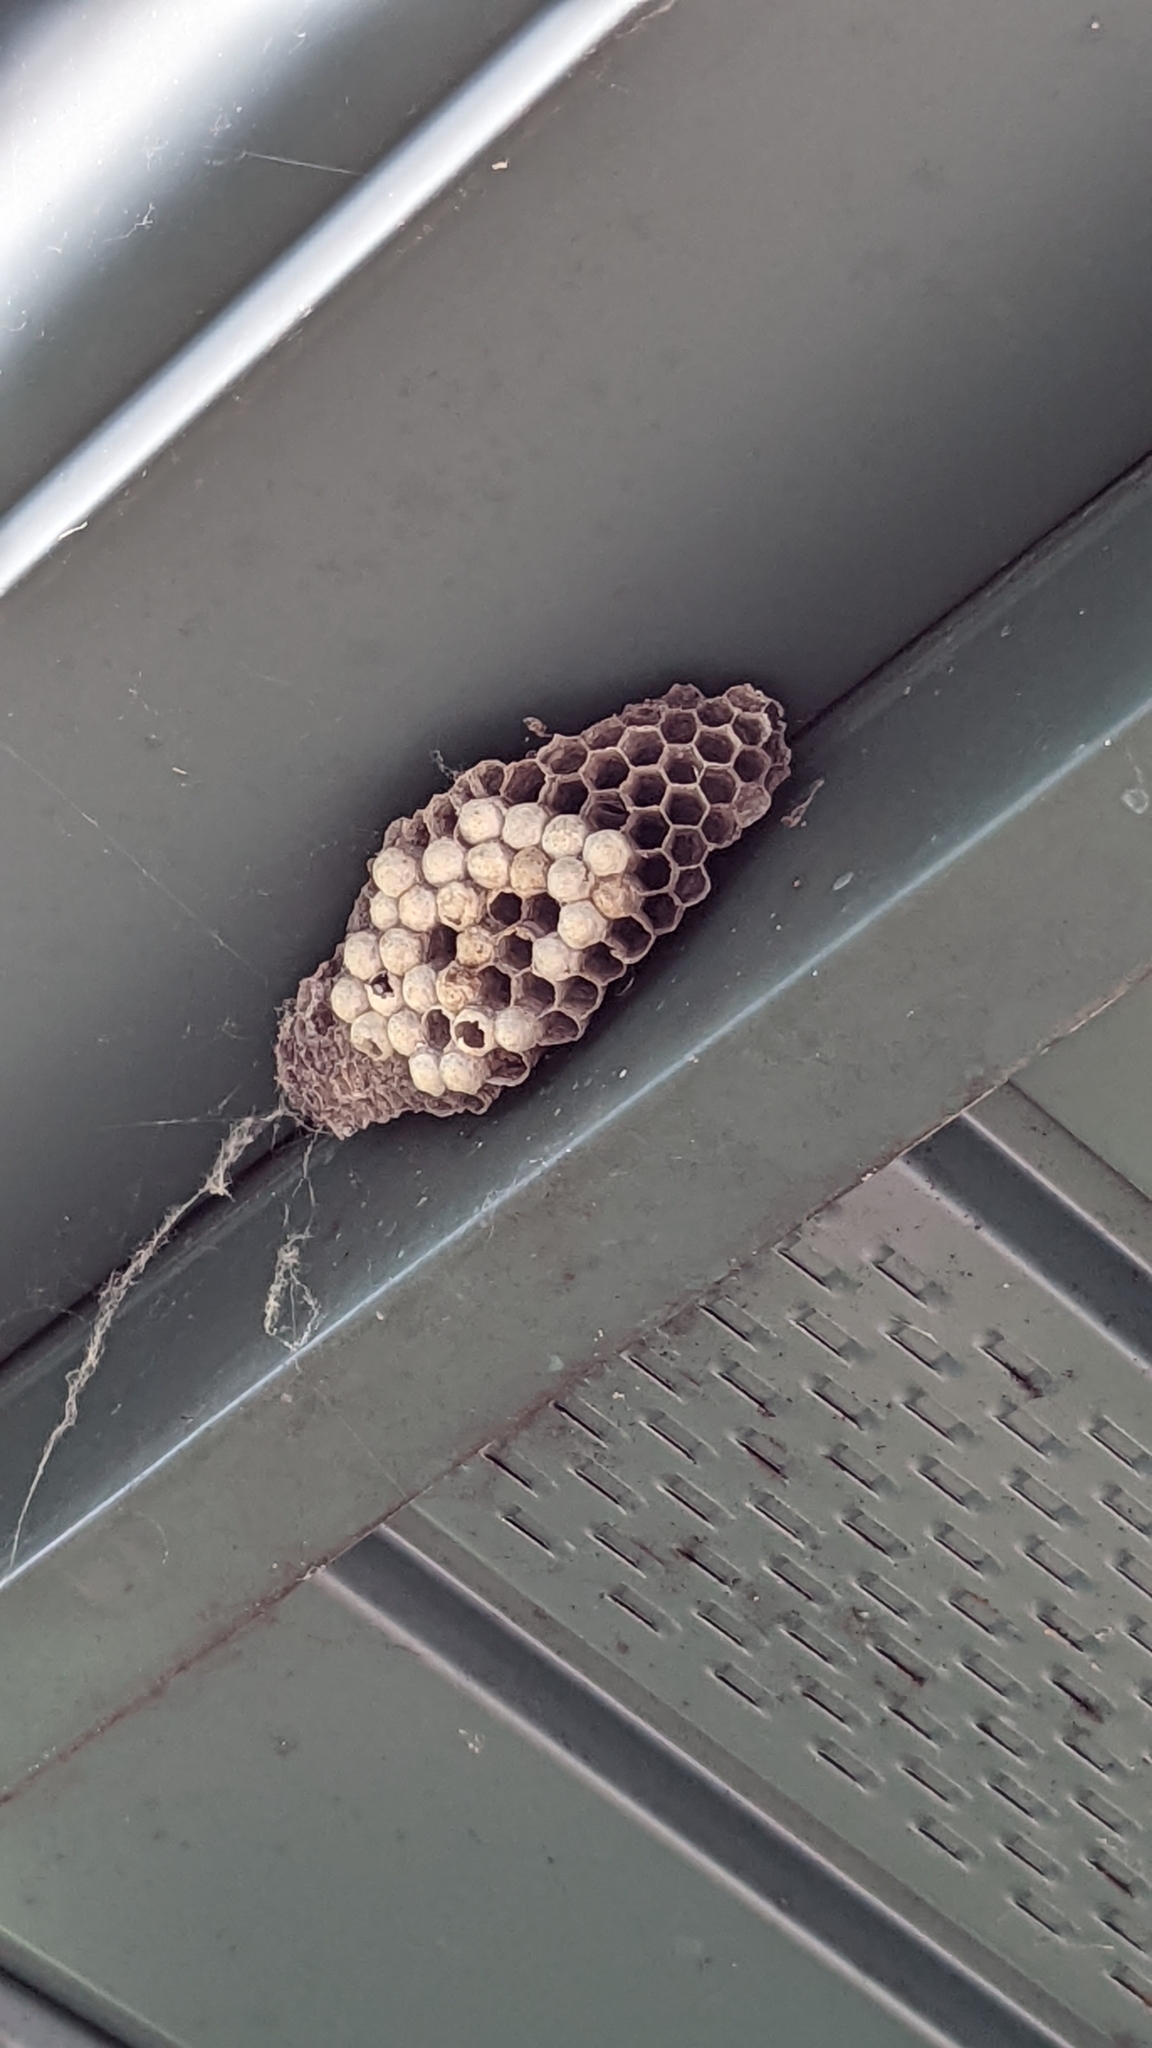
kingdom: Animalia
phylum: Arthropoda
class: Insecta
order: Hymenoptera
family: Eumenidae
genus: Polistes
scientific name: Polistes
